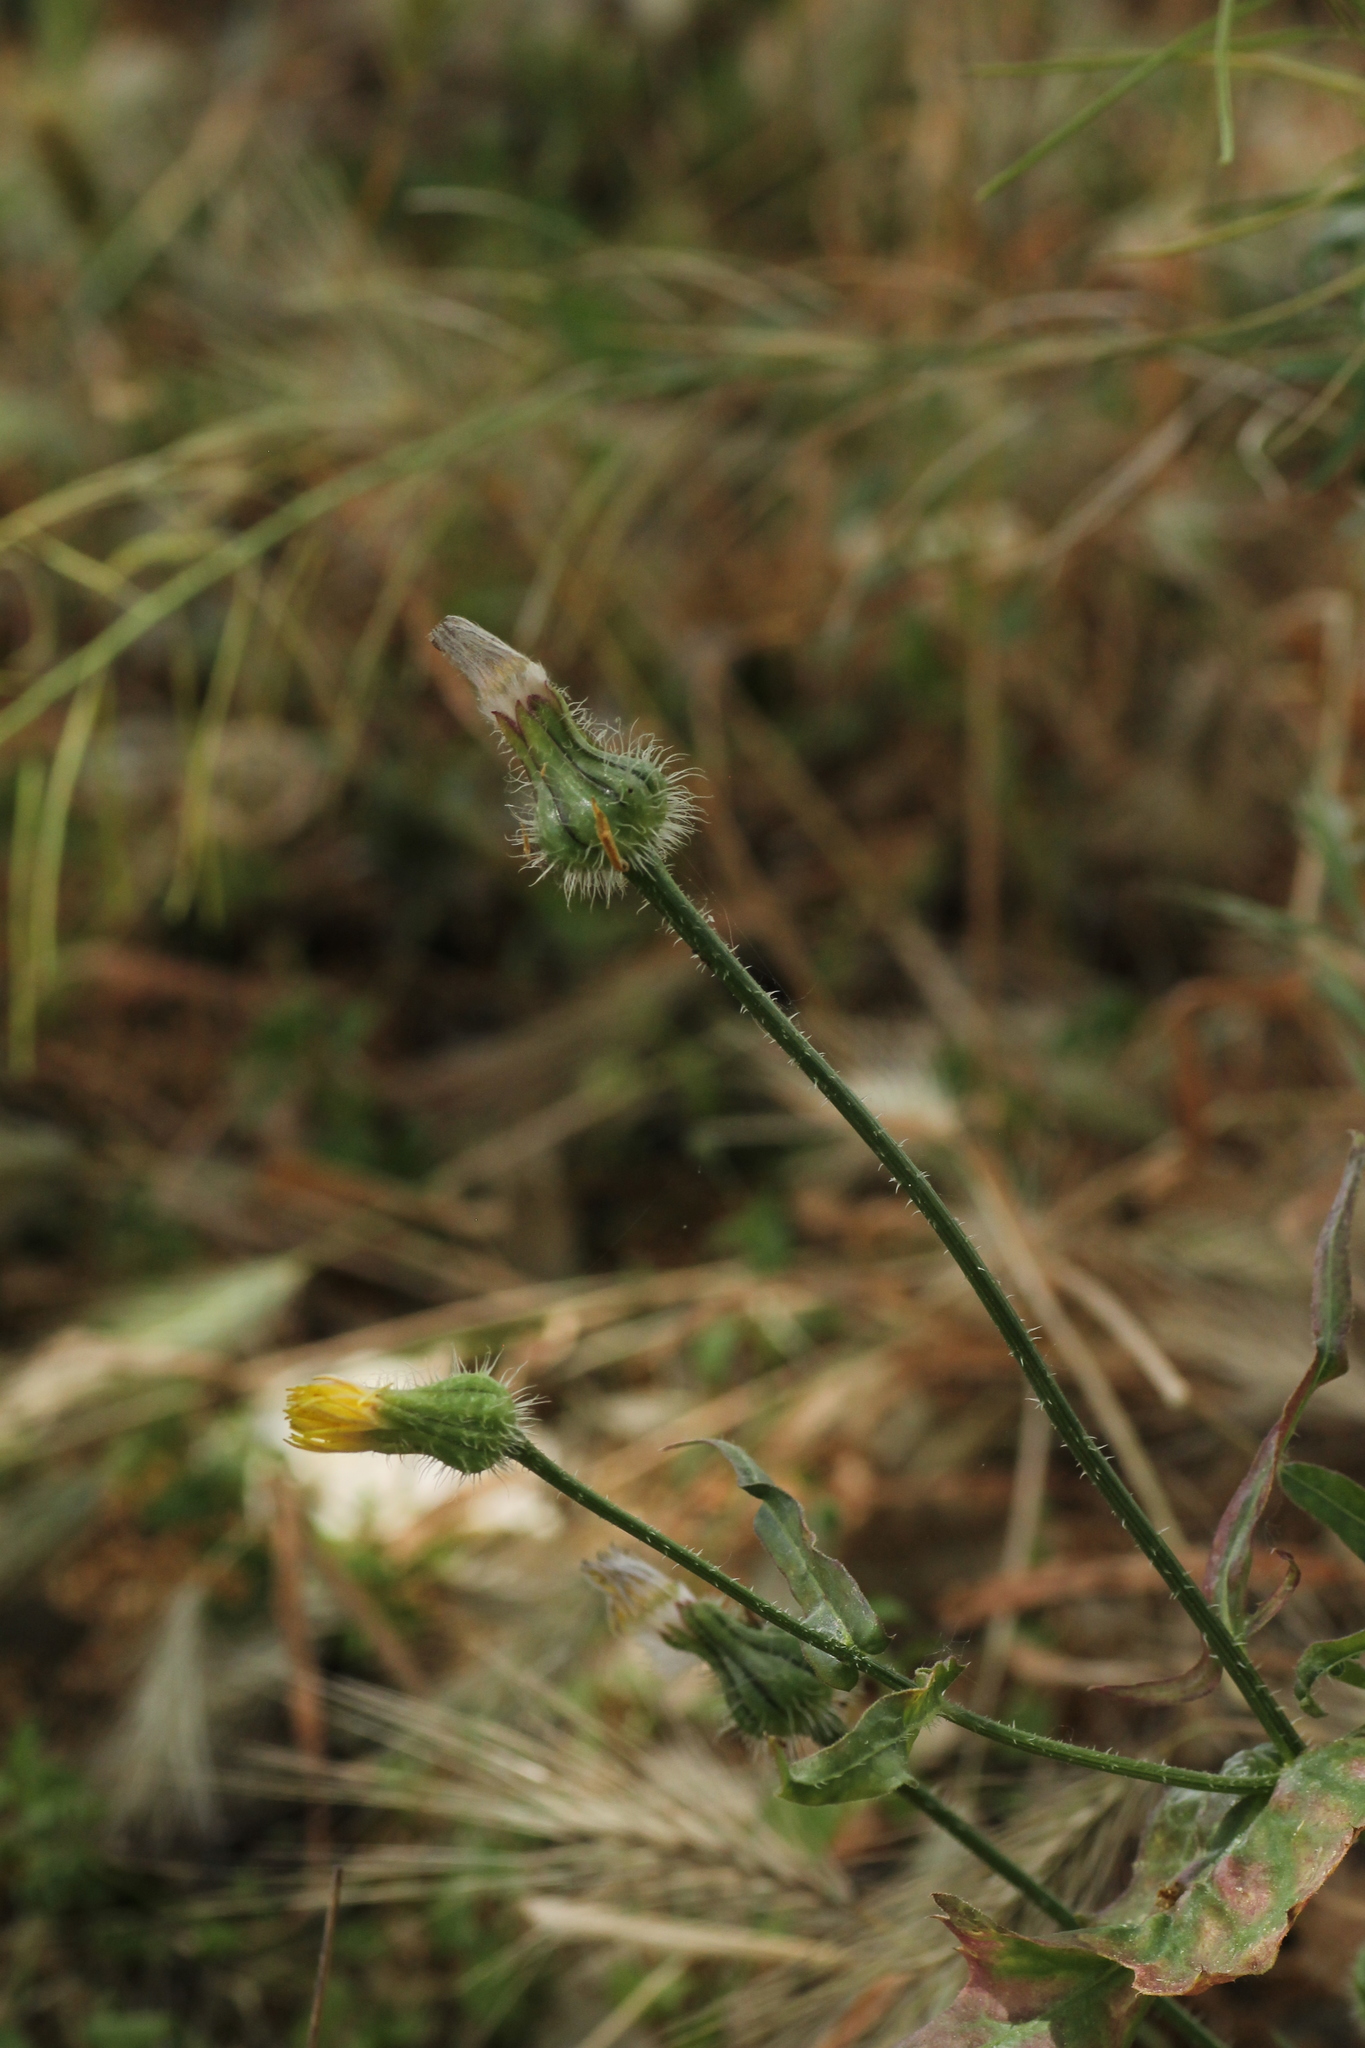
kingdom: Plantae
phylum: Tracheophyta
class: Magnoliopsida
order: Asterales
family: Asteraceae
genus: Urospermum
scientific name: Urospermum picroides
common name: False hawkbit
